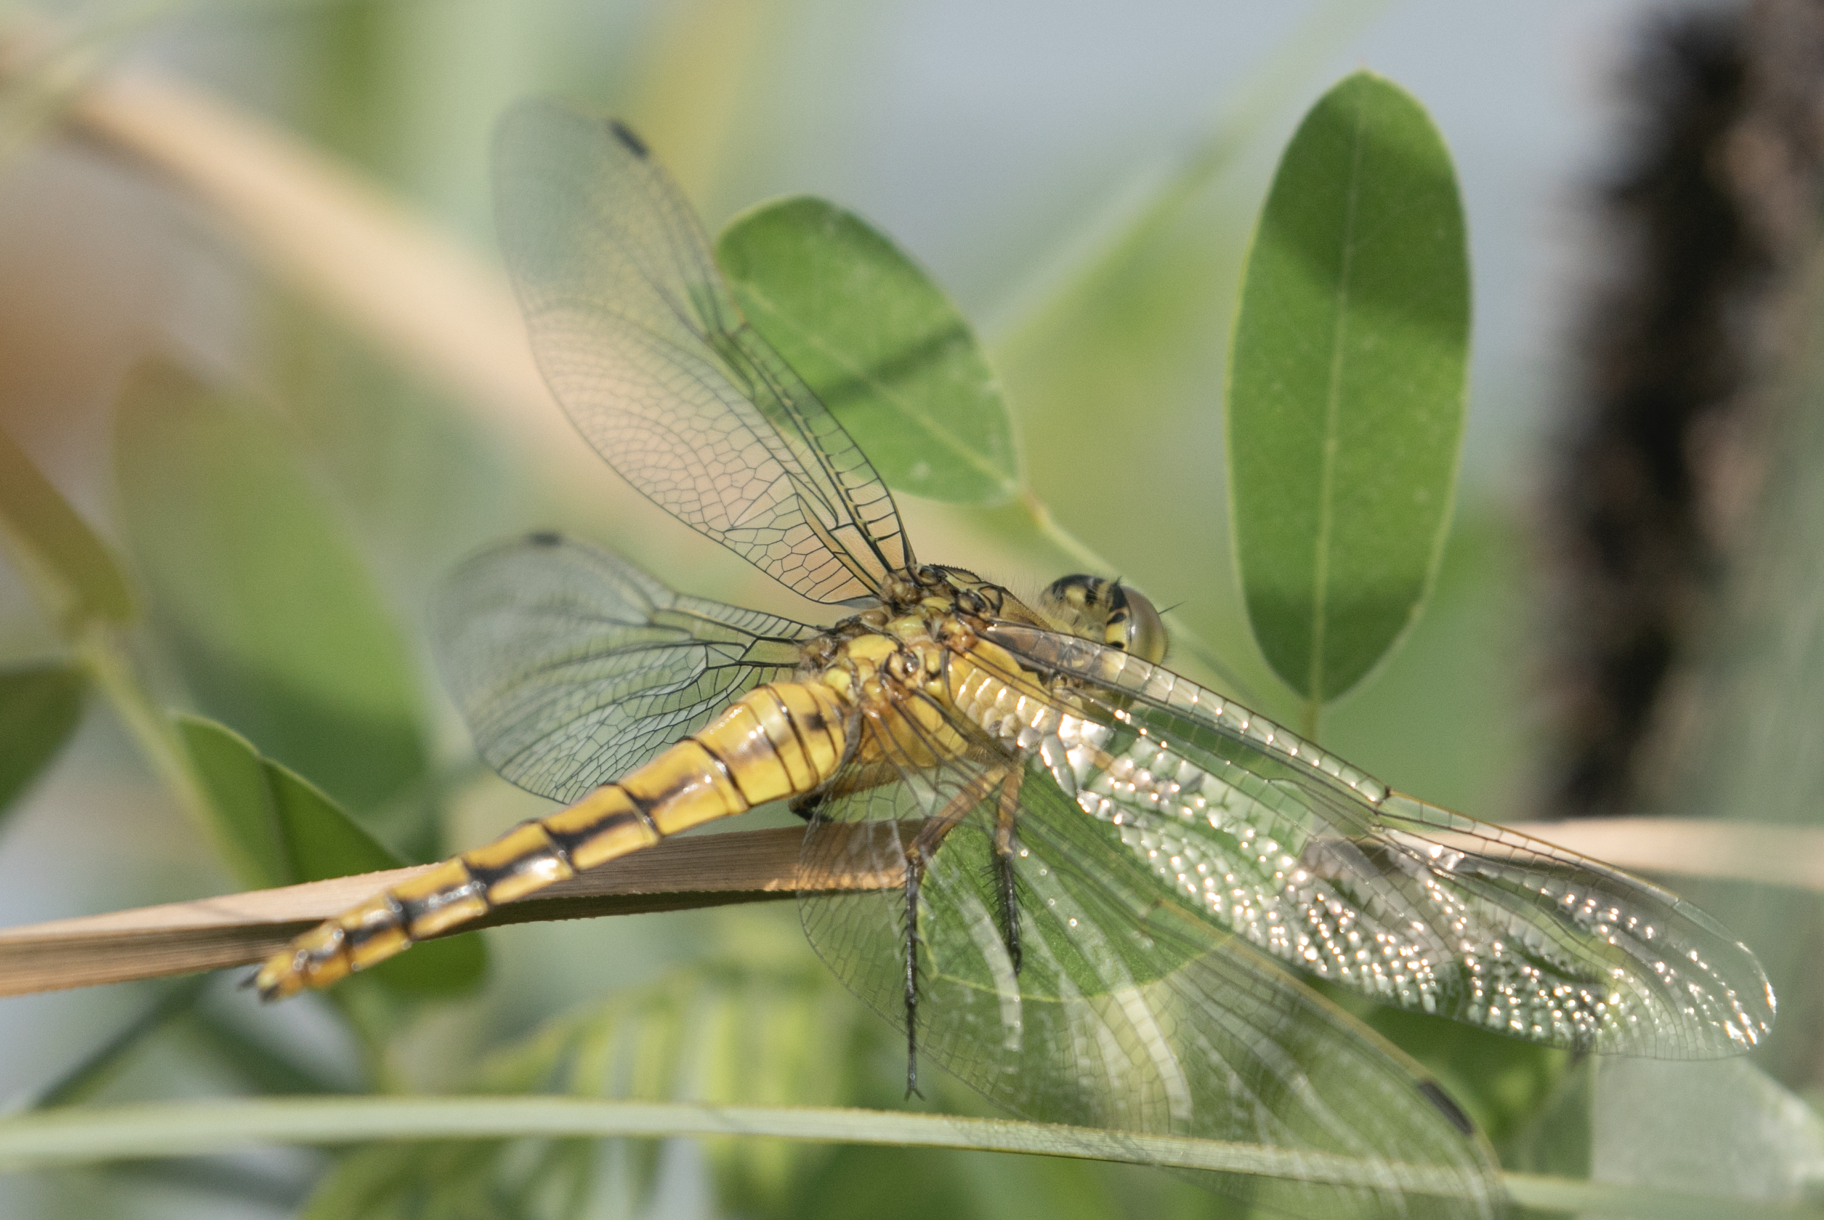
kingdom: Animalia
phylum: Arthropoda
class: Insecta
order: Odonata
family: Libellulidae
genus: Orthetrum
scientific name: Orthetrum cancellatum
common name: Black-tailed skimmer
